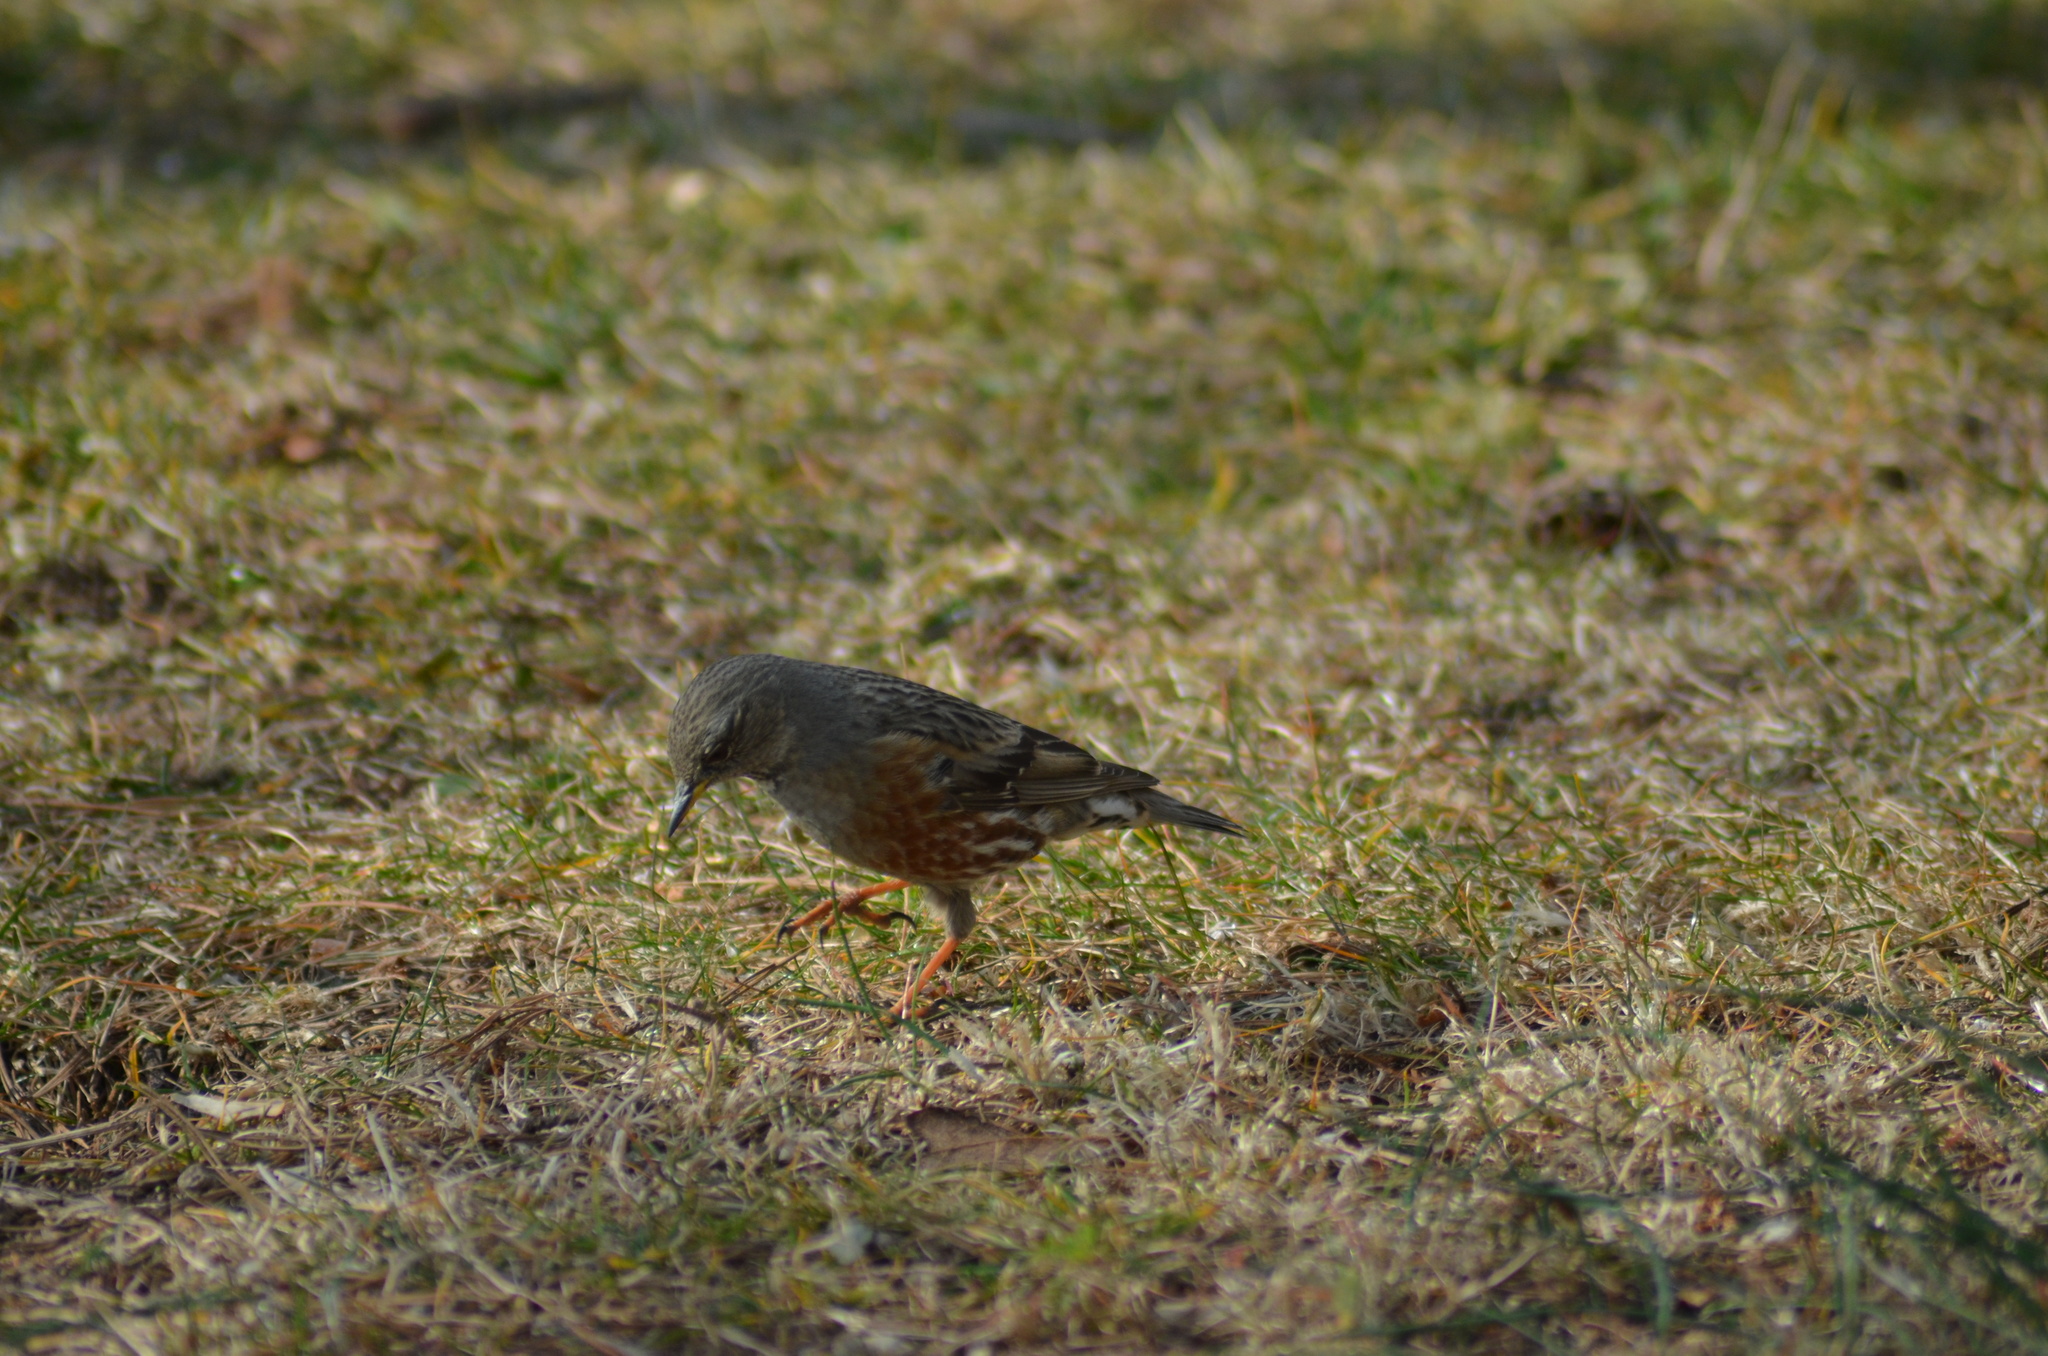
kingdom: Animalia
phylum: Chordata
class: Aves
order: Passeriformes
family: Prunellidae
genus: Prunella
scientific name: Prunella collaris
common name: Alpine accentor
